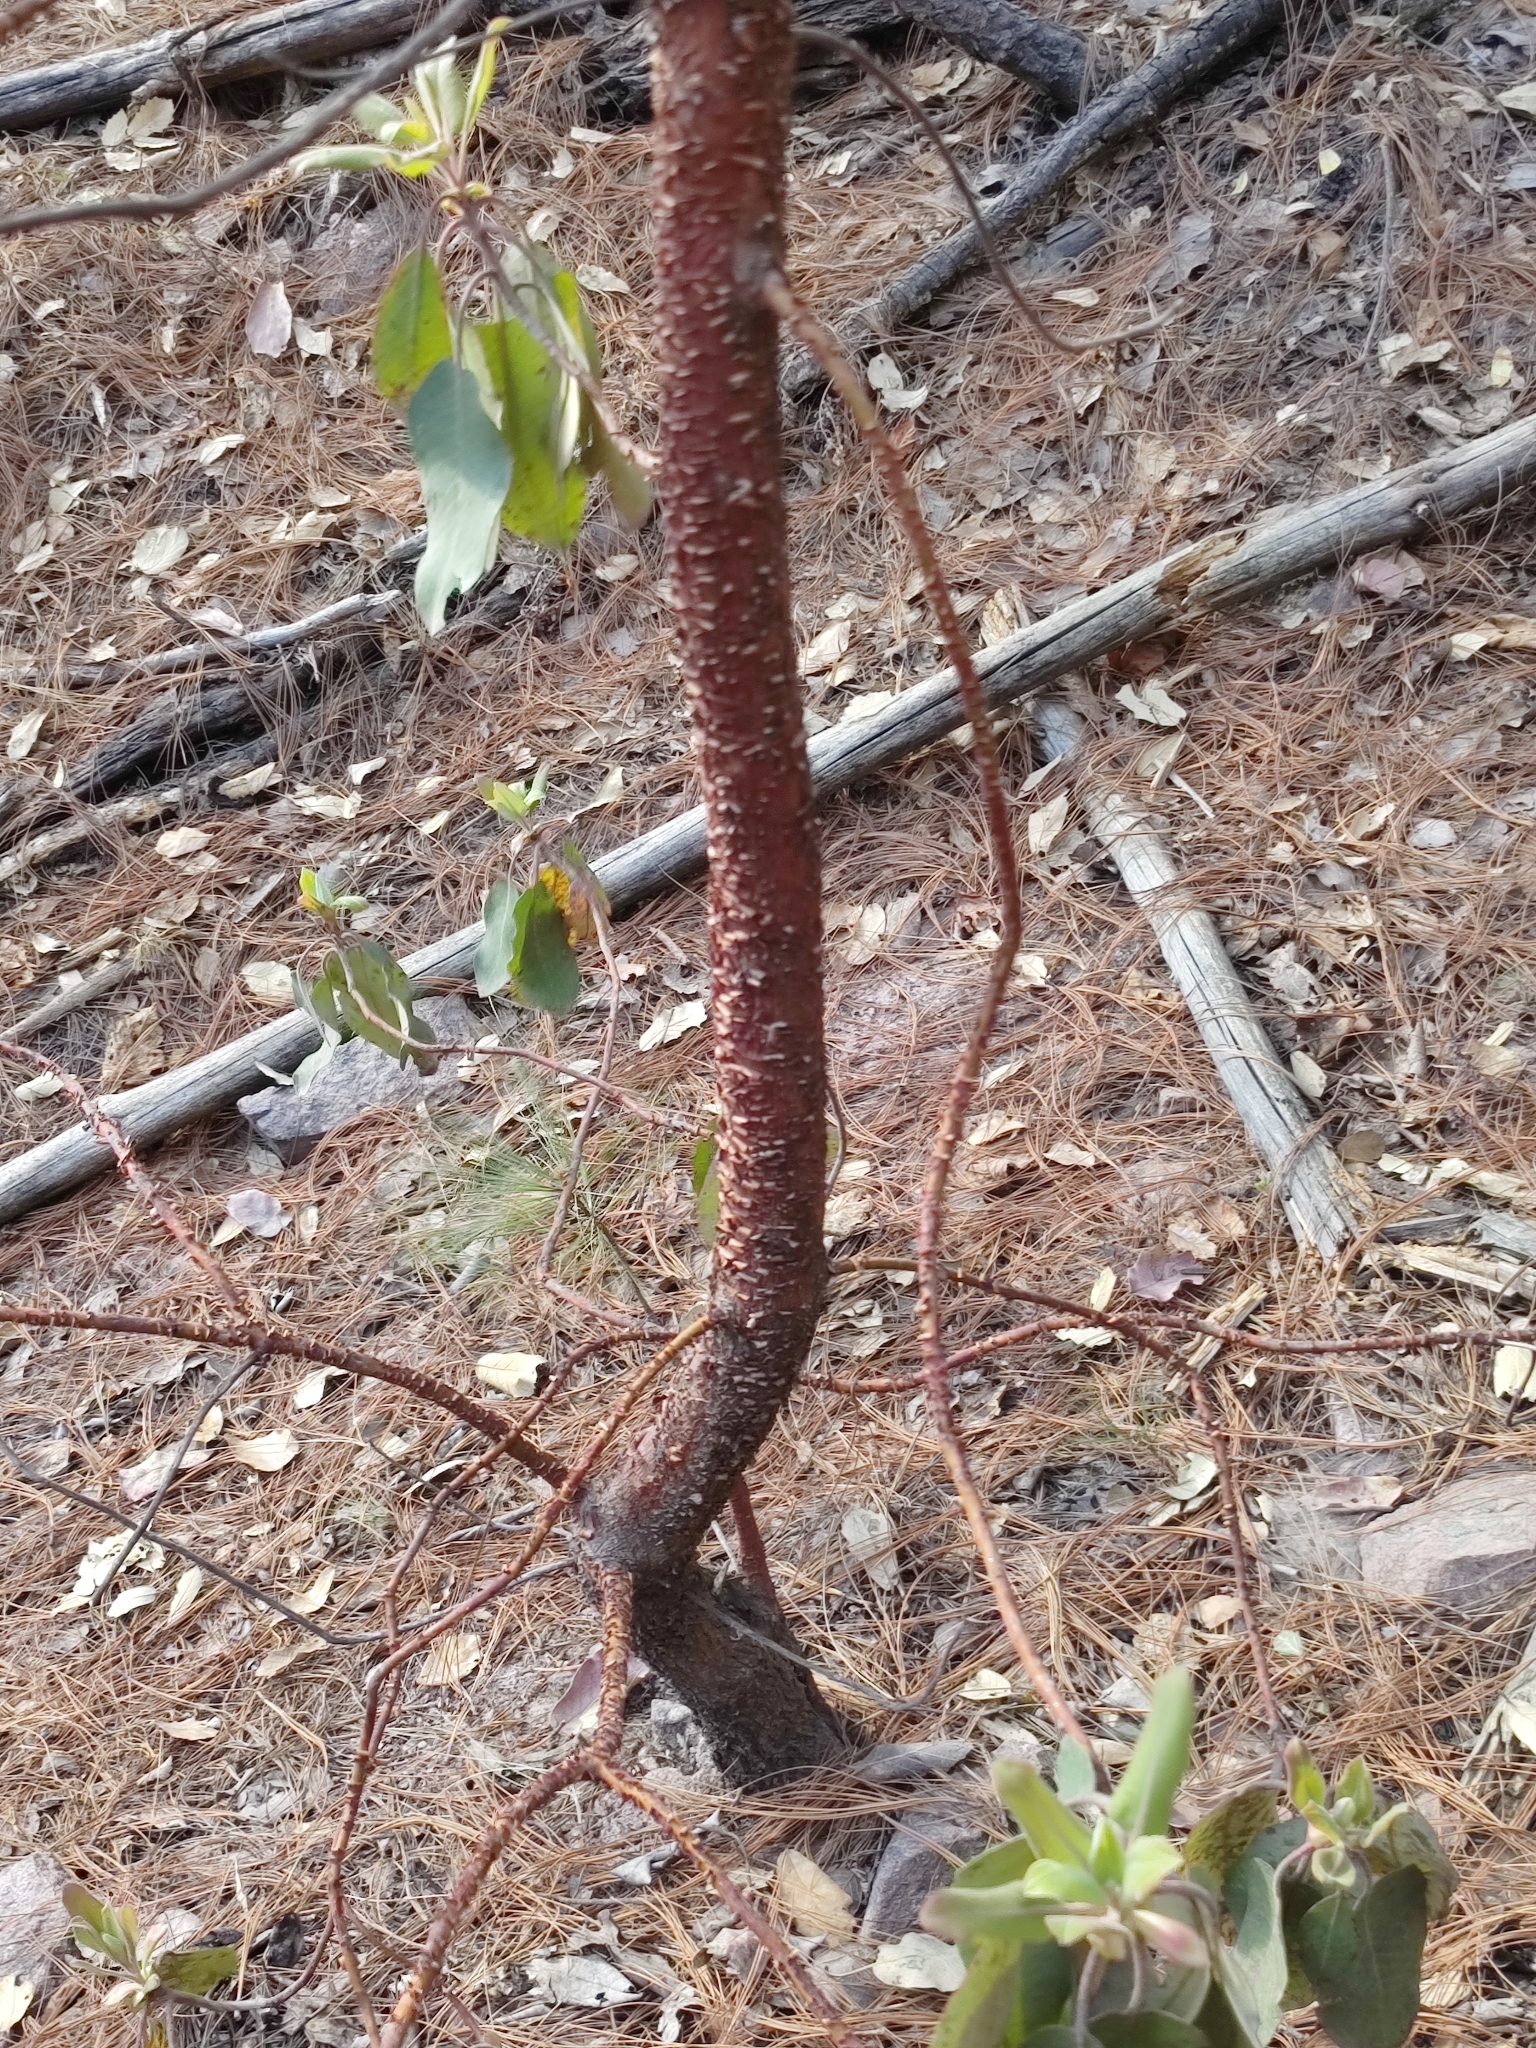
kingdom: Plantae
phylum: Tracheophyta
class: Magnoliopsida
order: Ericales
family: Ericaceae
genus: Arbutus
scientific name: Arbutus bicolor
